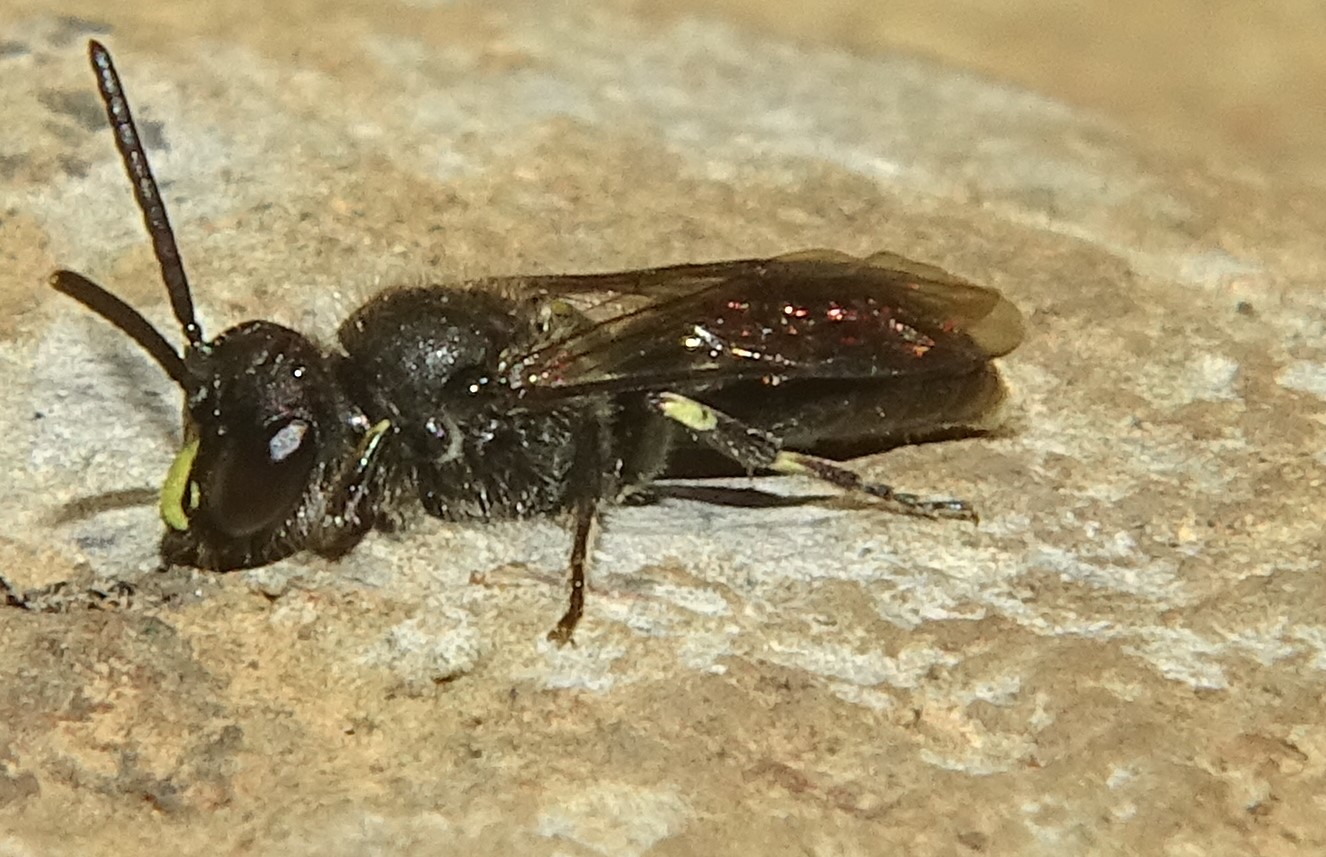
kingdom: Animalia
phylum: Arthropoda
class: Insecta
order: Hymenoptera
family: Colletidae
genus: Hylaeus
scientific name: Hylaeus nivicola
